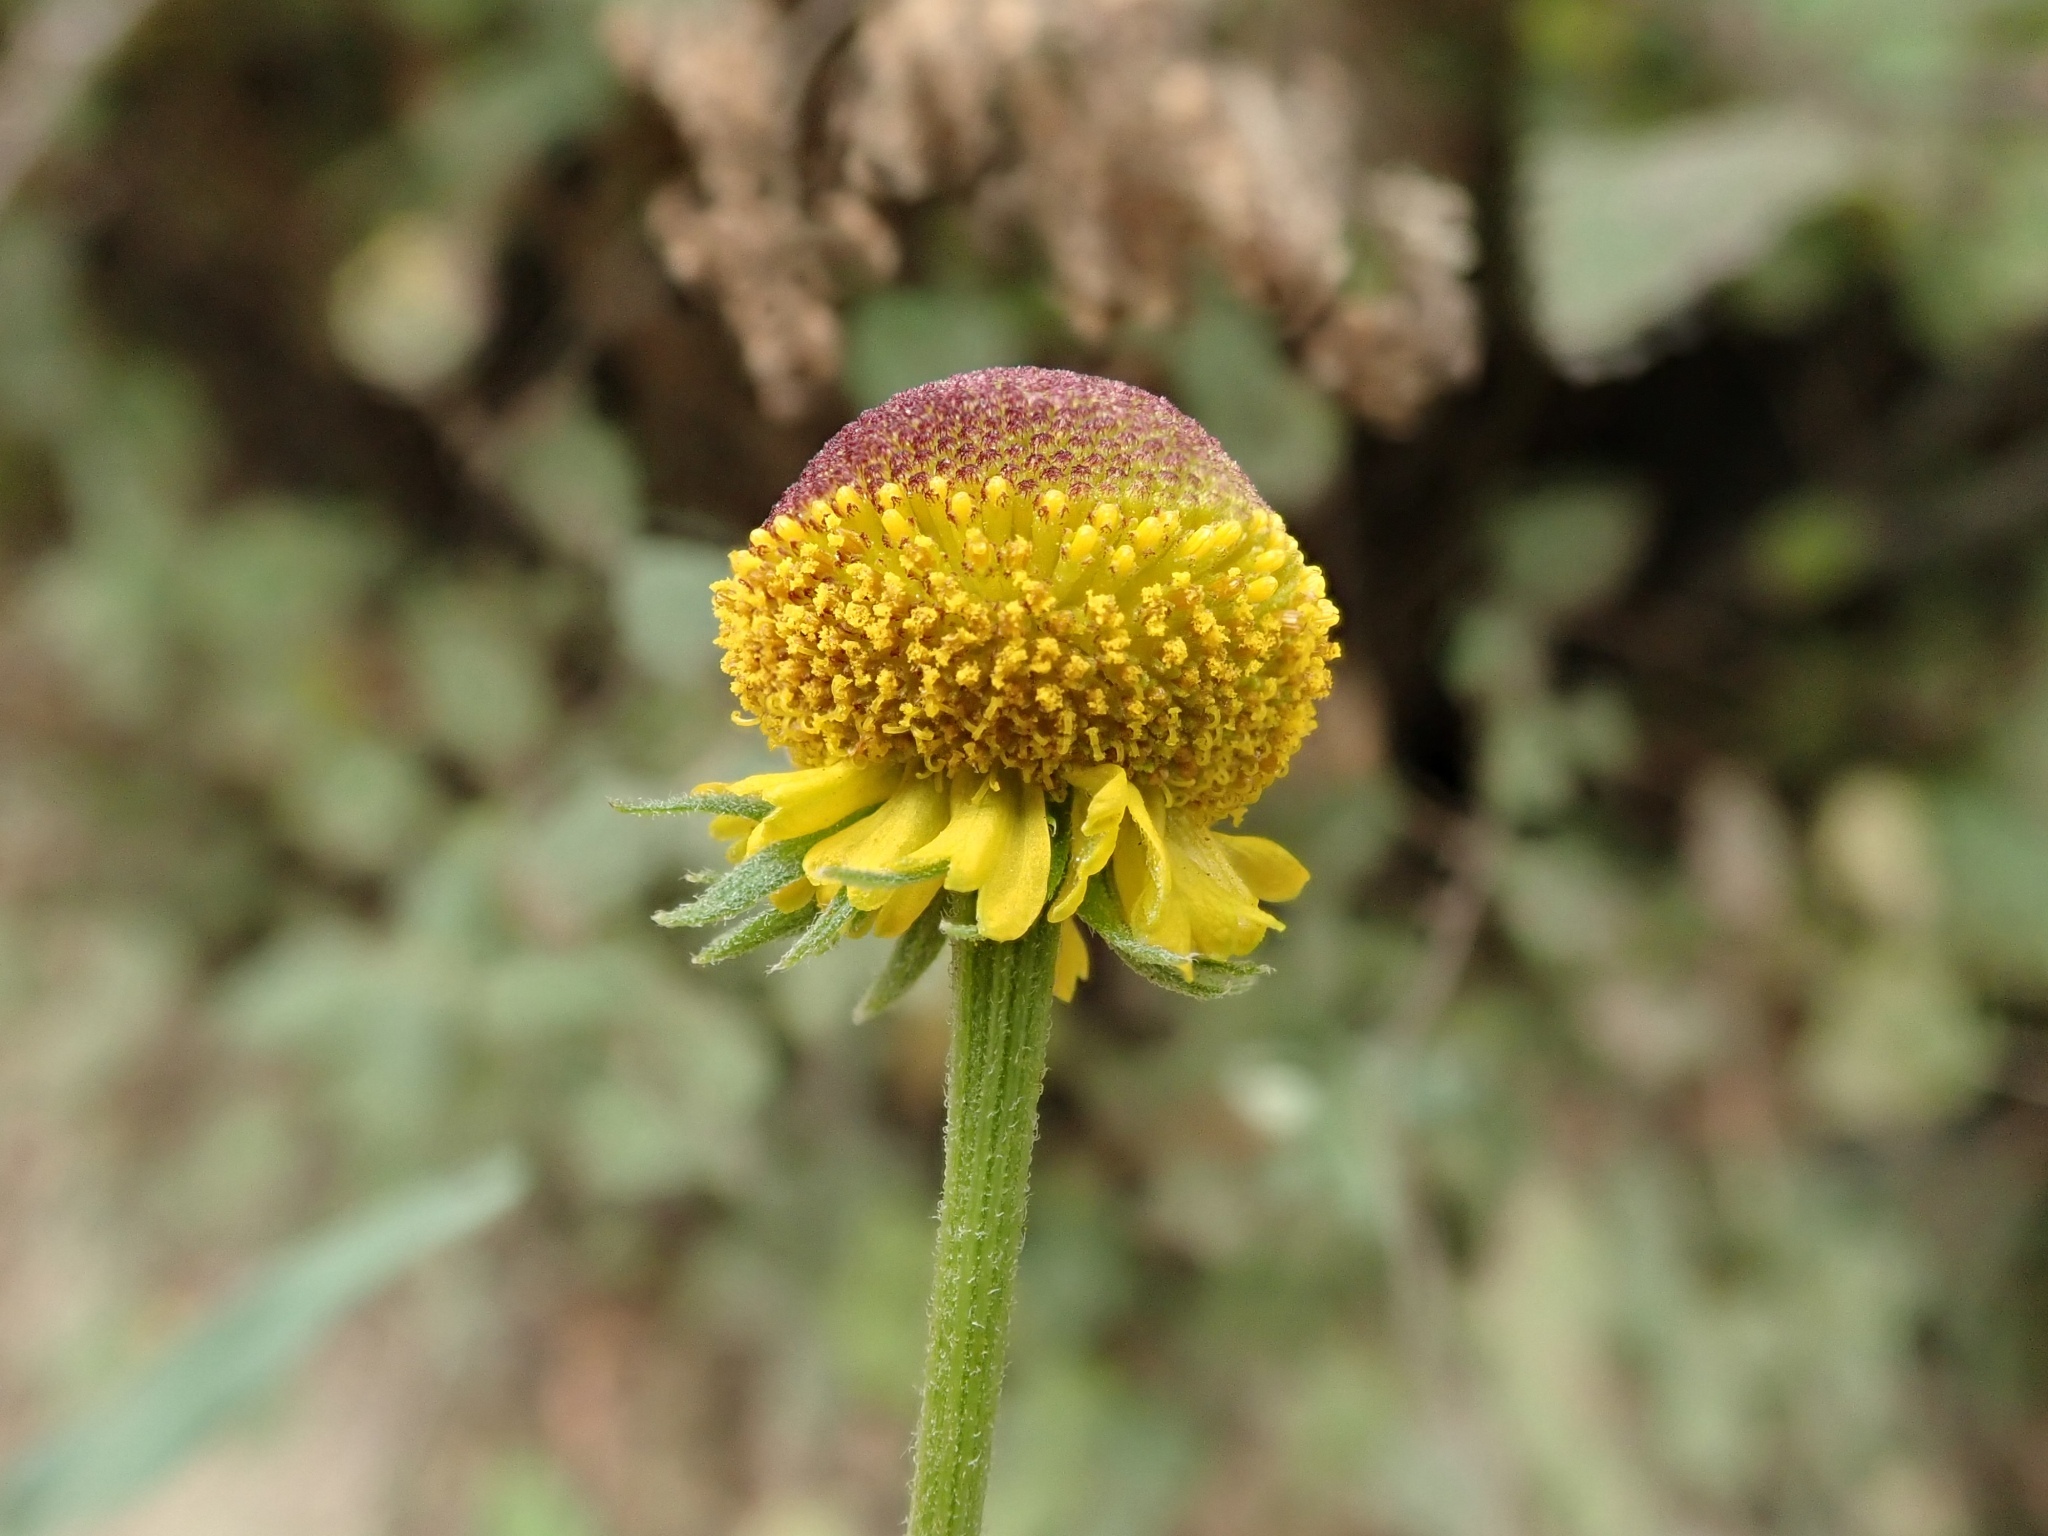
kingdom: Plantae
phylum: Tracheophyta
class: Magnoliopsida
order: Asterales
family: Asteraceae
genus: Helenium
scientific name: Helenium puberulum
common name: Sneezewort
